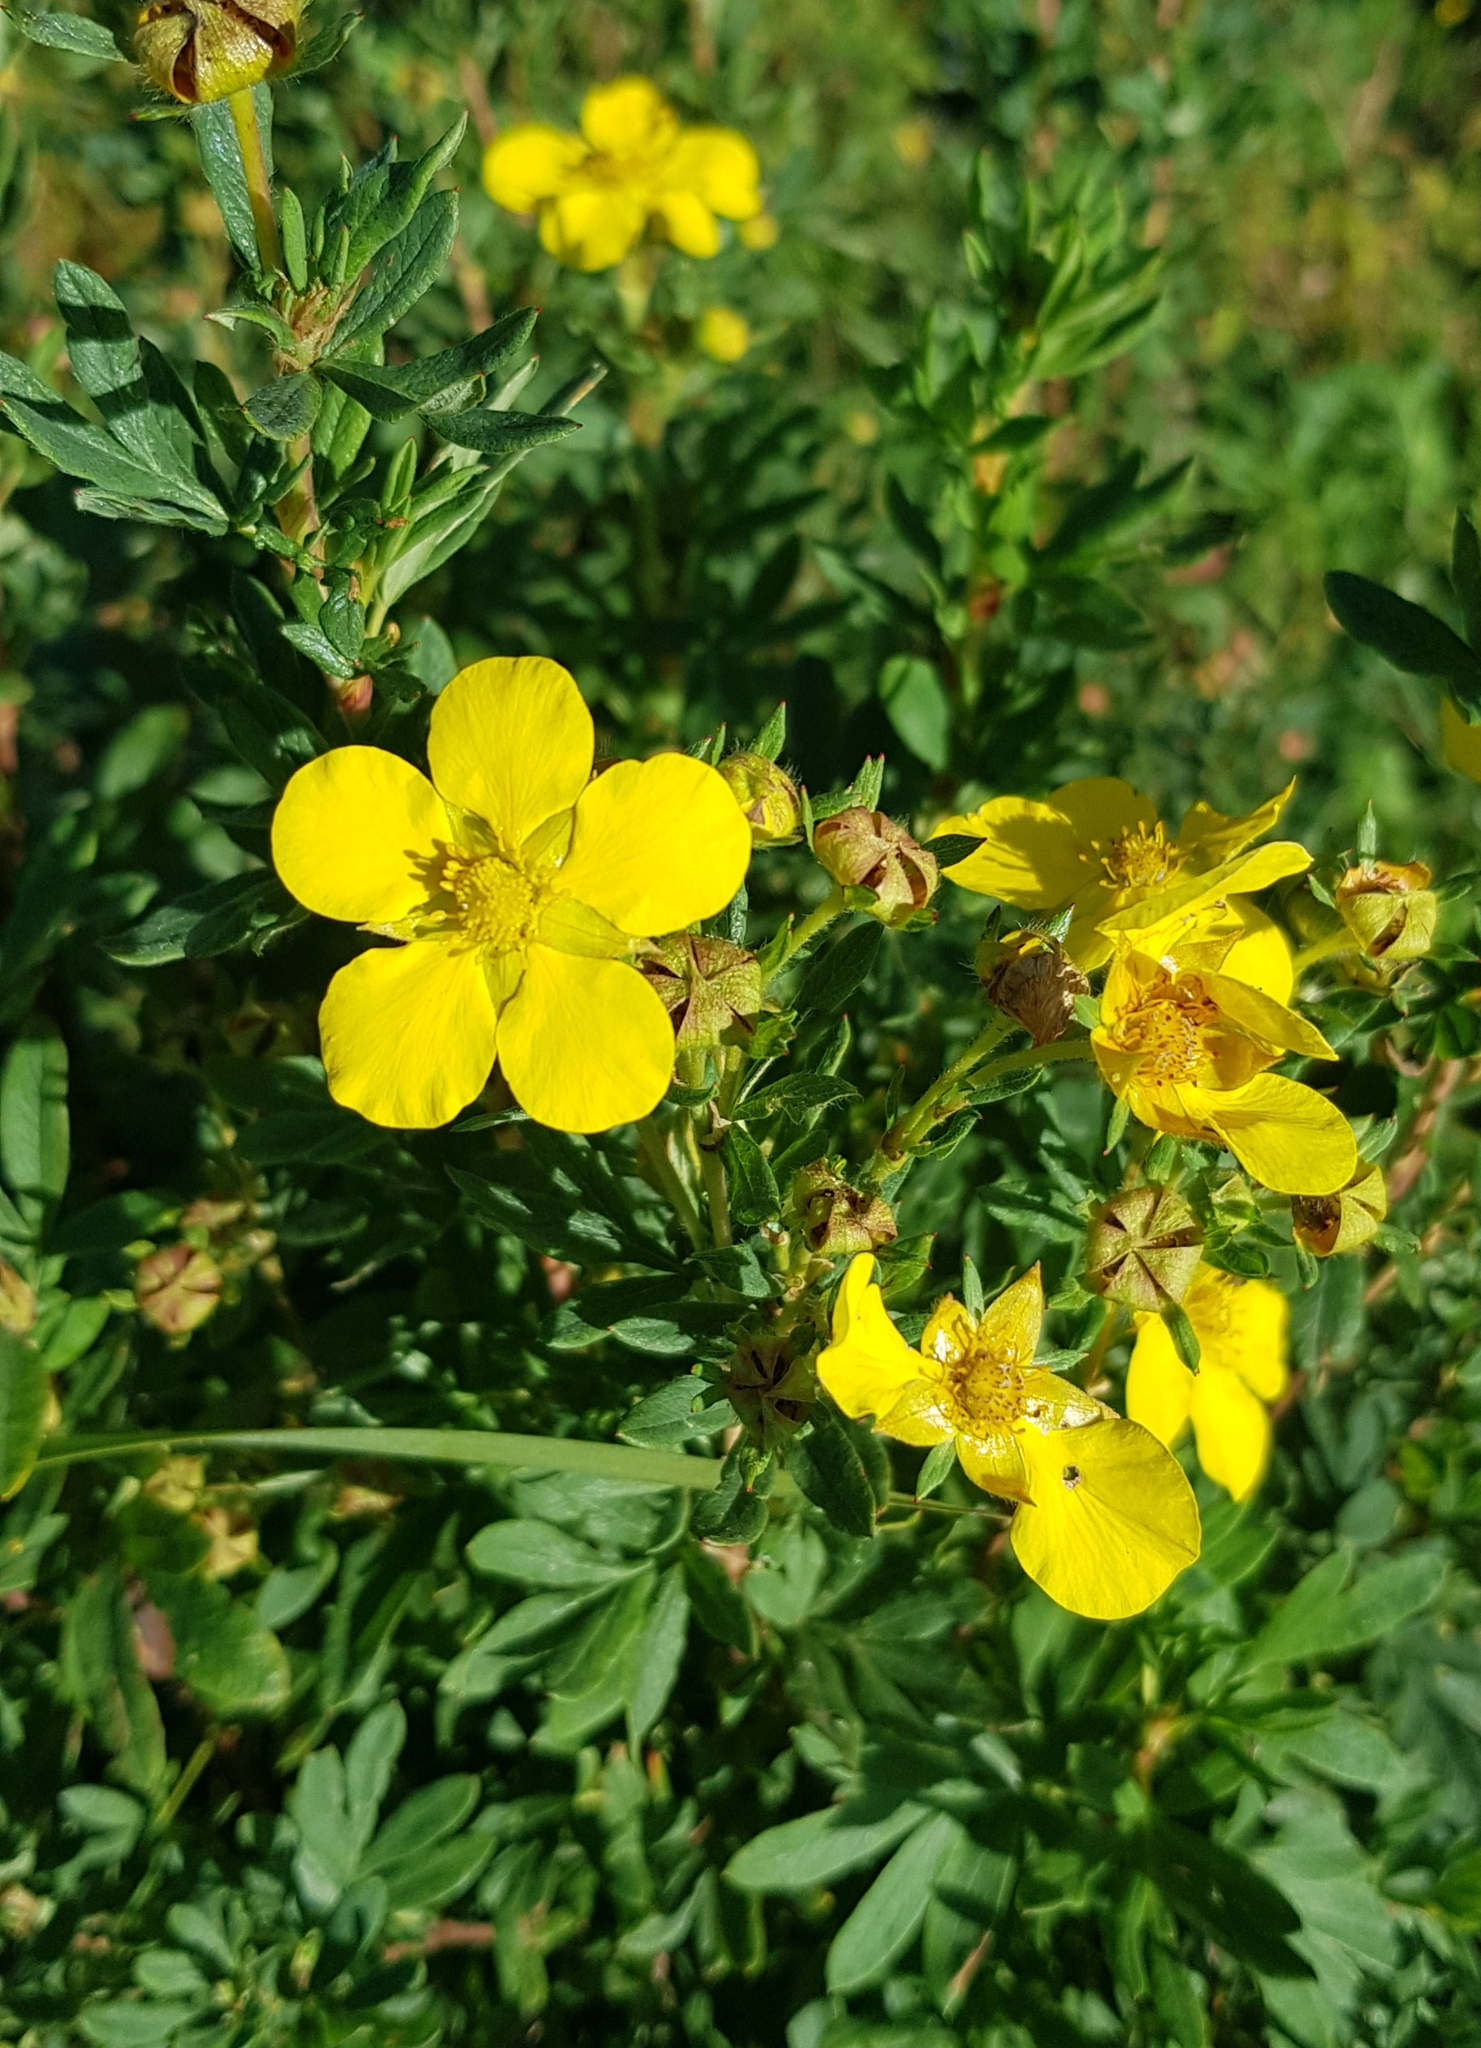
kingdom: Plantae
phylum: Tracheophyta
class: Magnoliopsida
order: Rosales
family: Rosaceae
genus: Dasiphora
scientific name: Dasiphora fruticosa
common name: Shrubby cinquefoil
